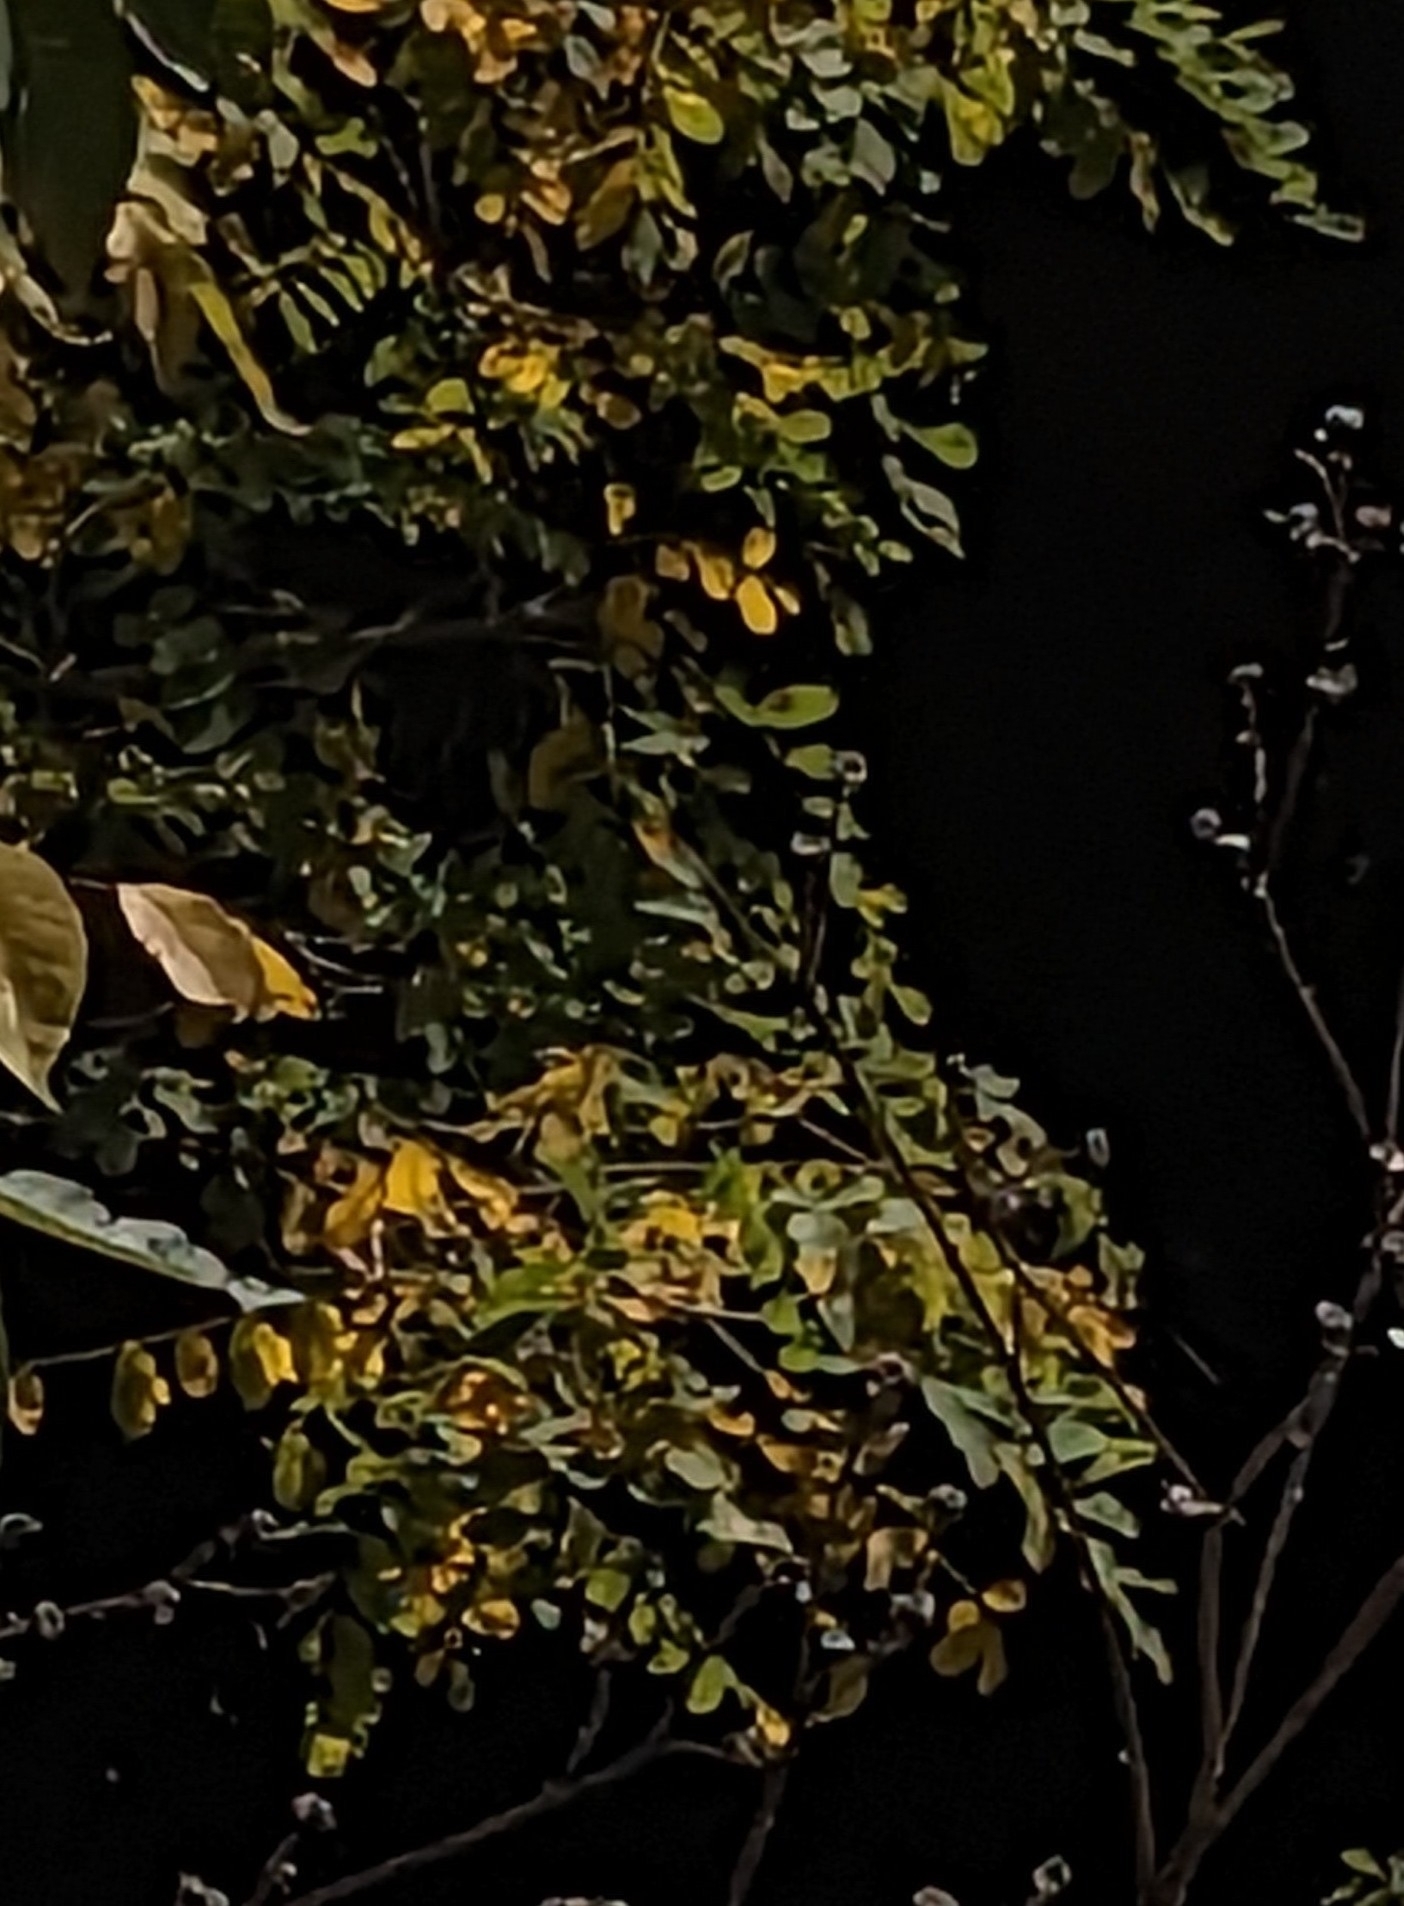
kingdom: Plantae
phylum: Tracheophyta
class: Magnoliopsida
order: Fabales
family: Fabaceae
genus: Robinia
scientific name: Robinia pseudoacacia
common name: Black locust
